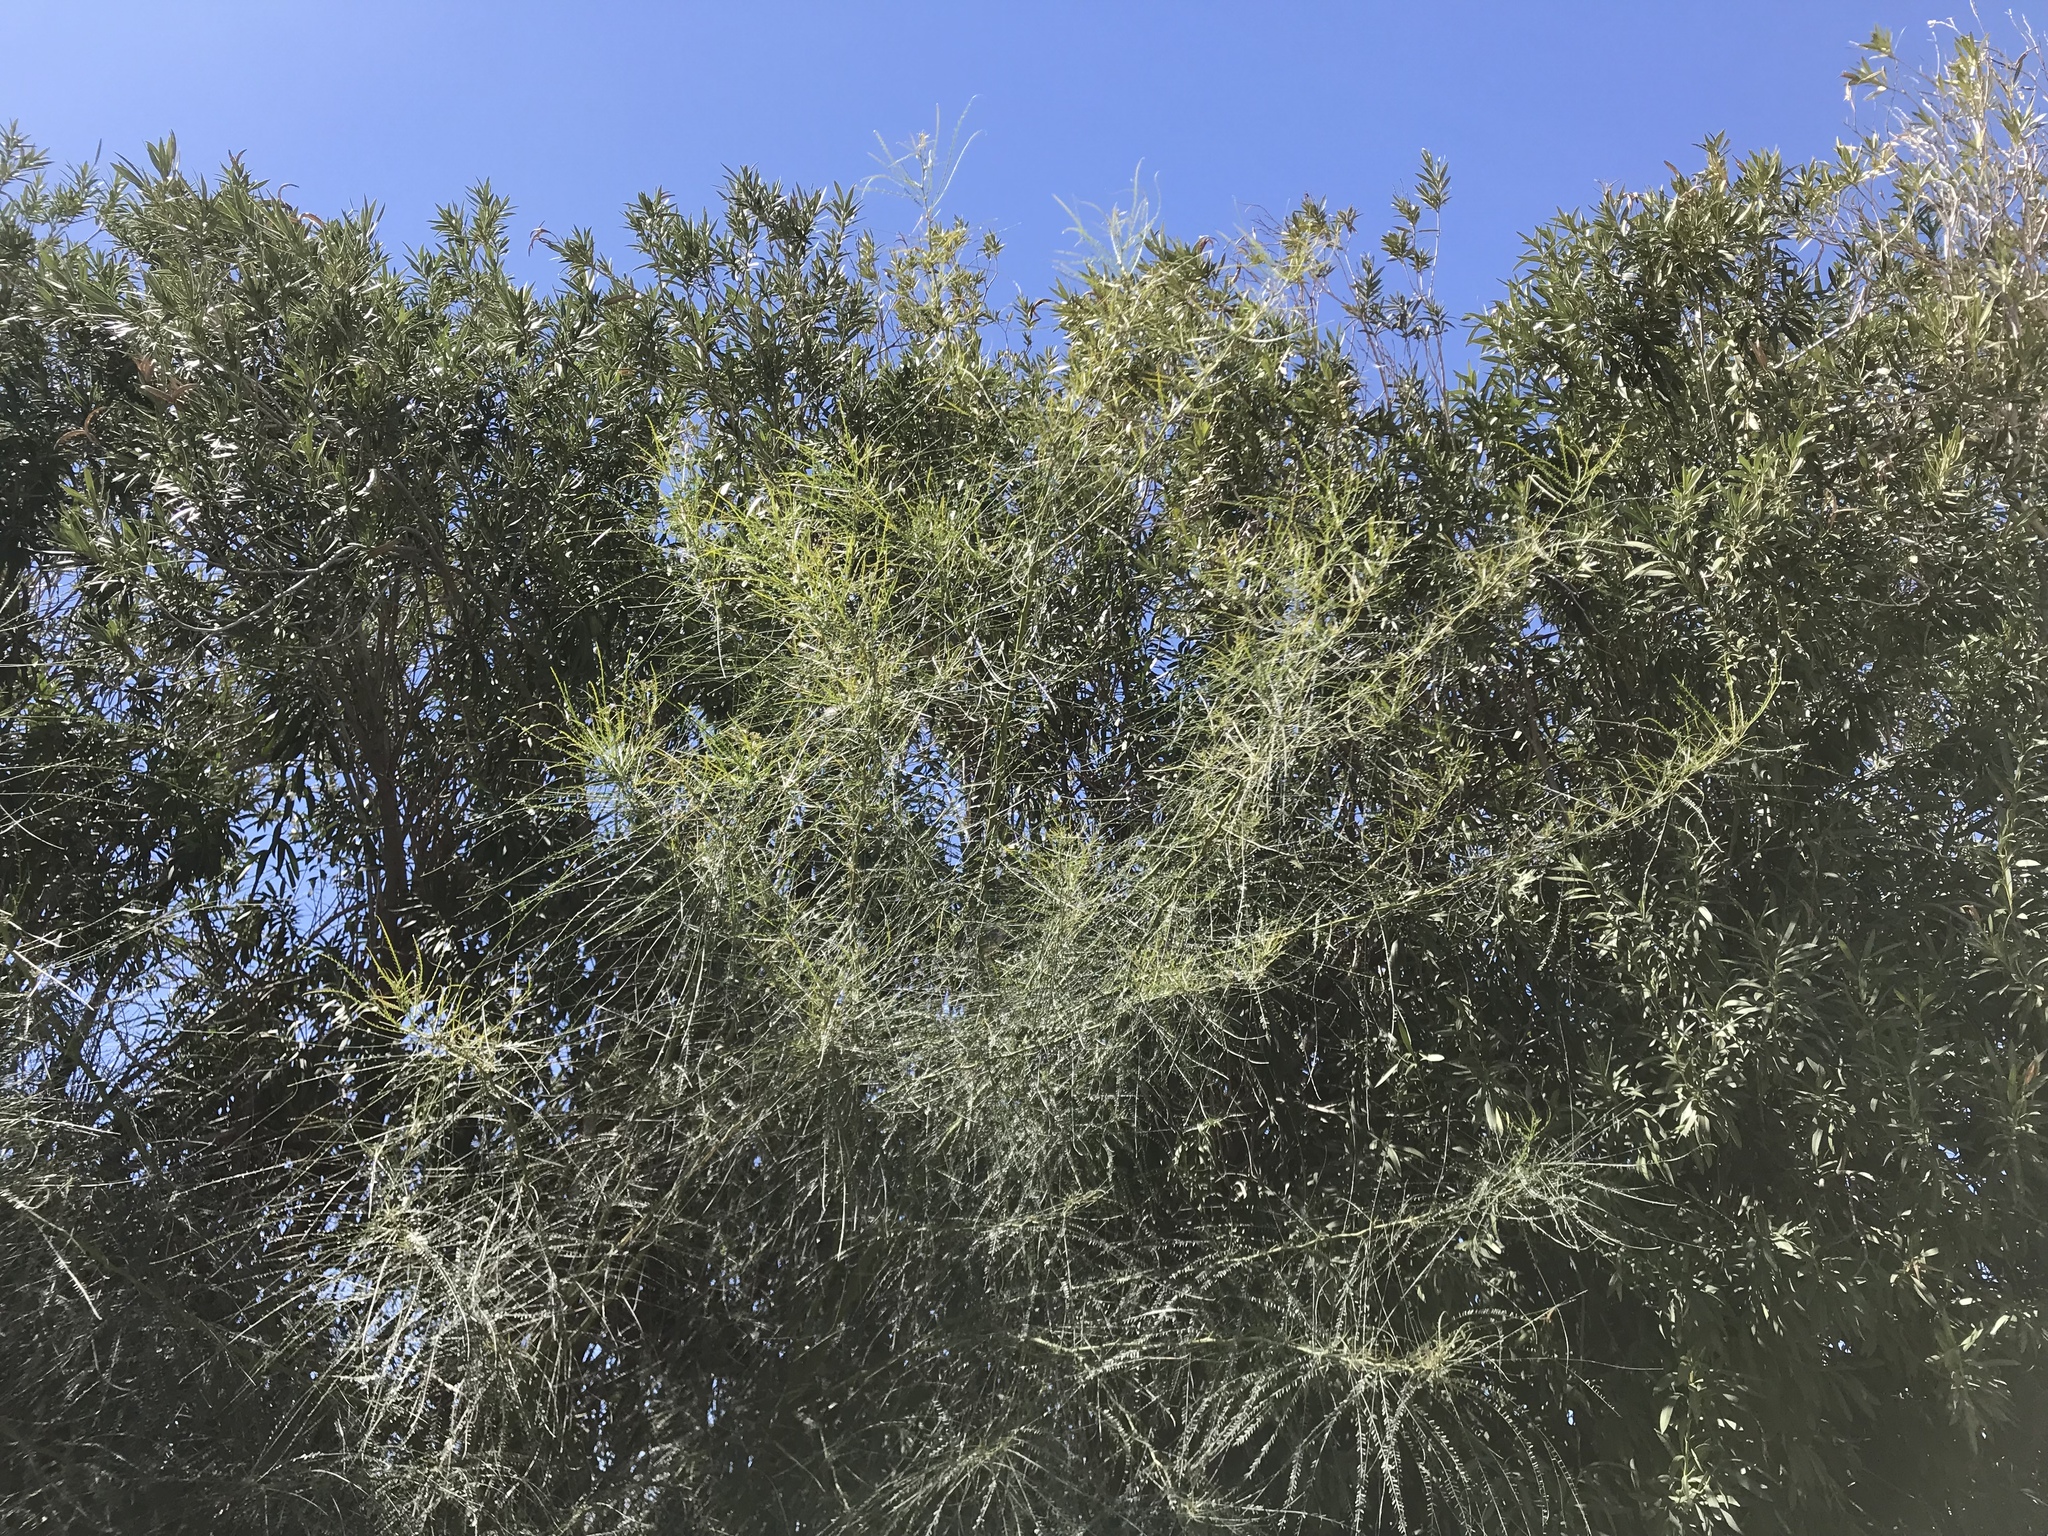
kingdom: Plantae
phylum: Tracheophyta
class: Magnoliopsida
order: Fabales
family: Fabaceae
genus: Parkinsonia
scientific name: Parkinsonia aculeata
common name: Jerusalem thorn
